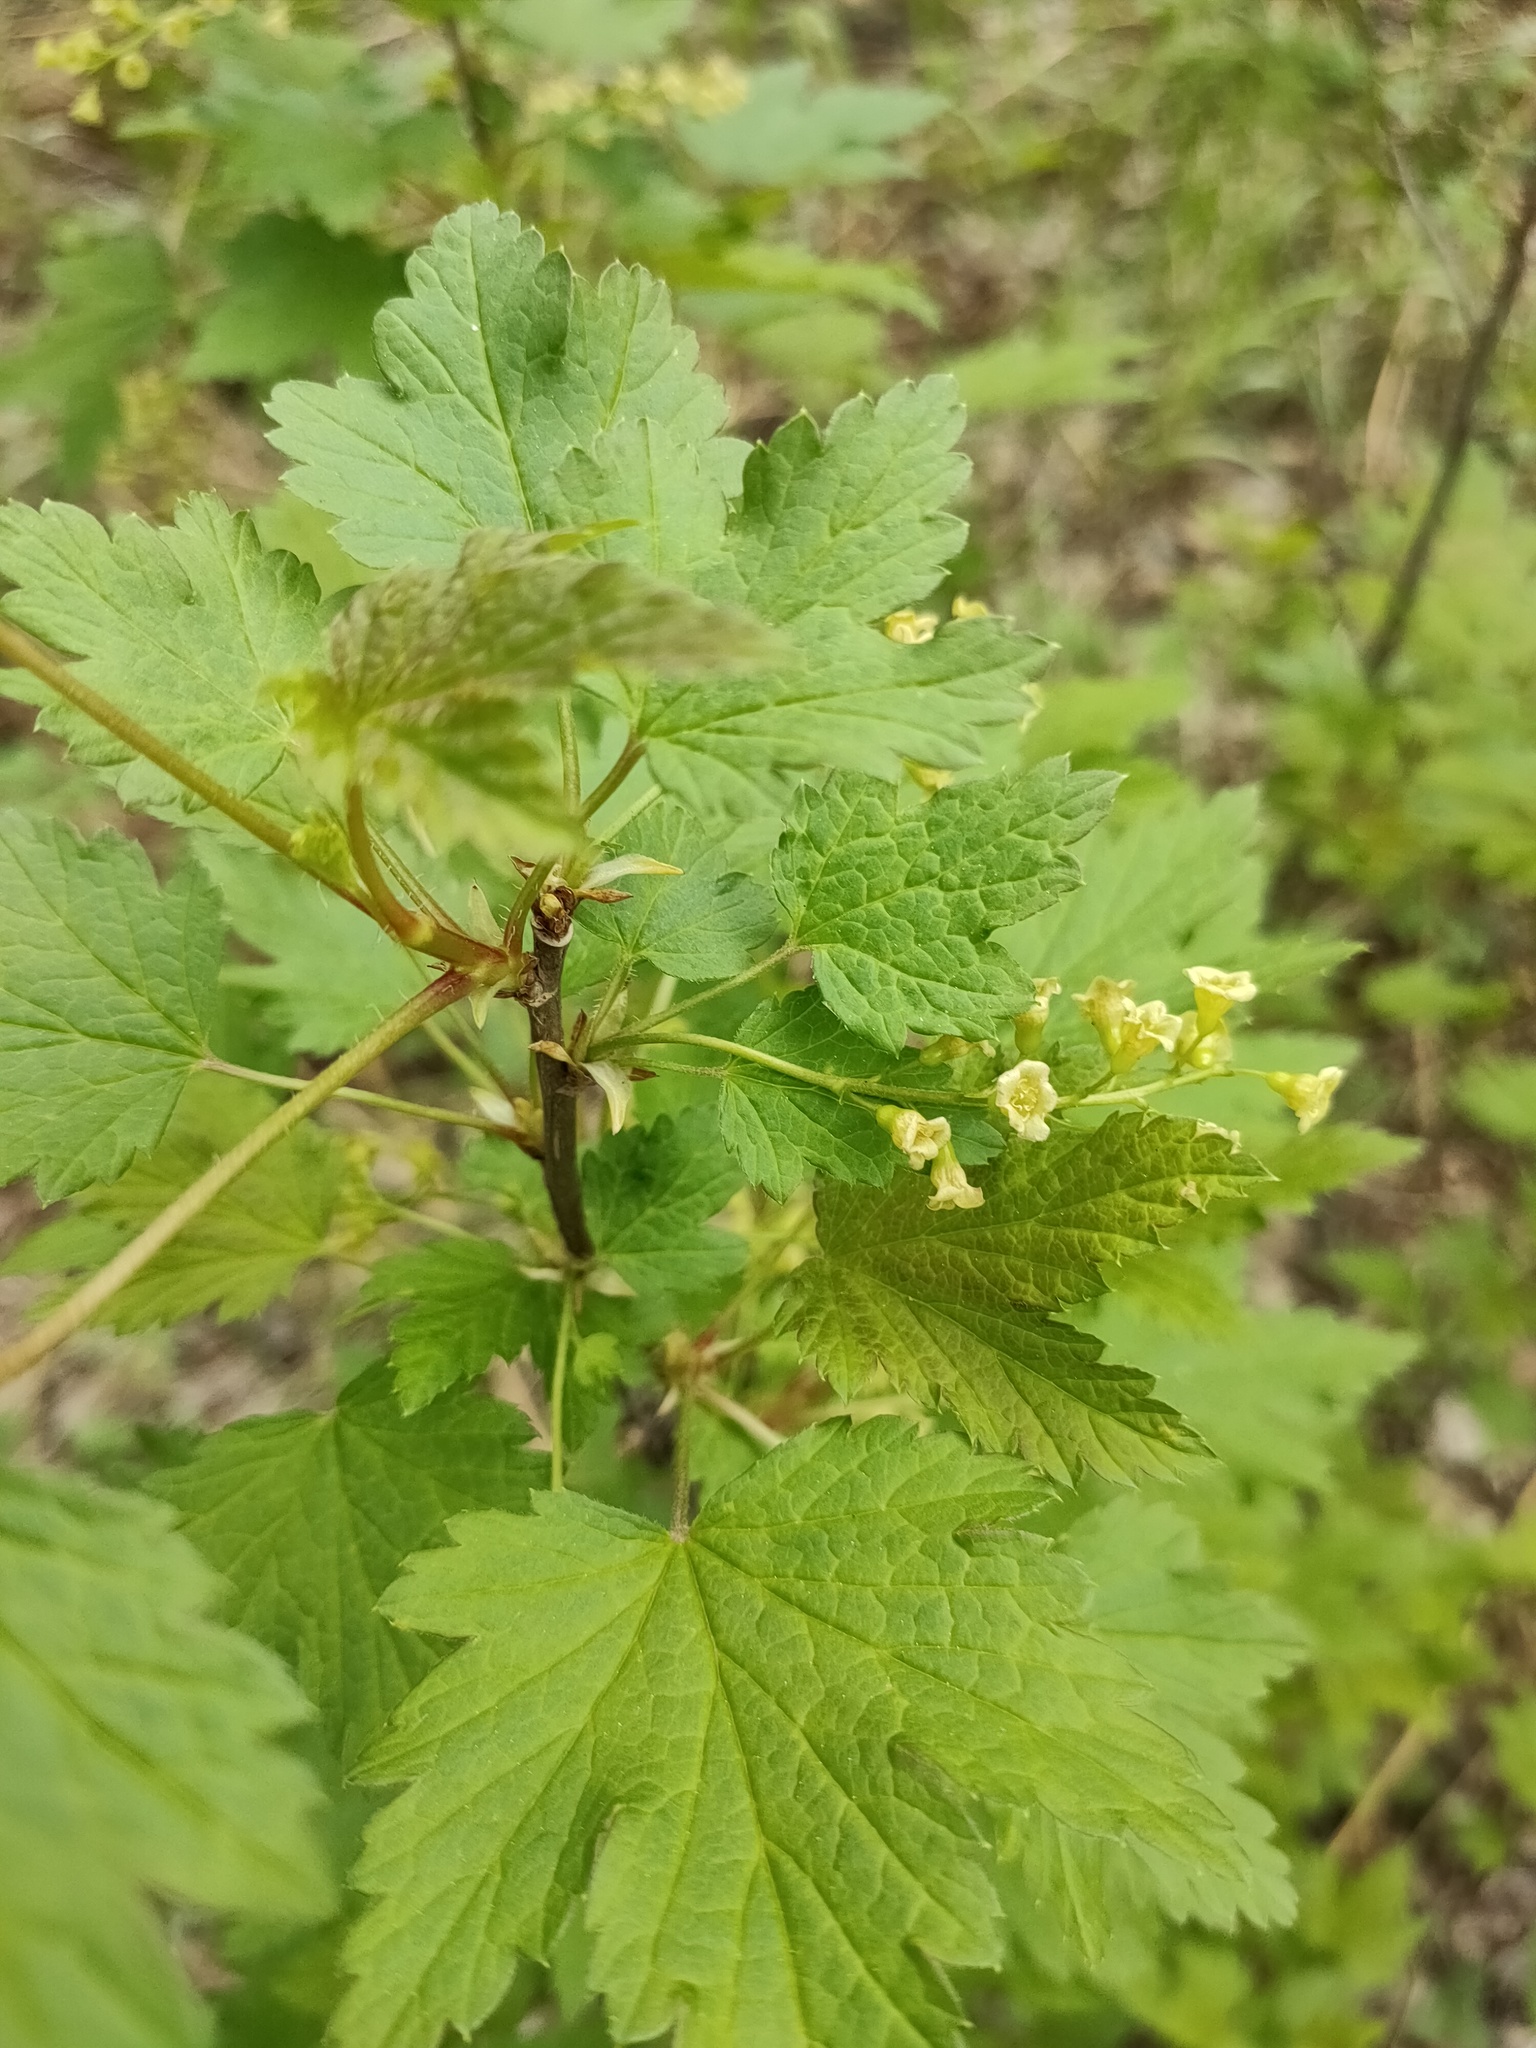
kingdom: Plantae
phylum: Tracheophyta
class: Magnoliopsida
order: Saxifragales
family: Grossulariaceae
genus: Ribes
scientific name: Ribes spicatum
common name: Downy currant
